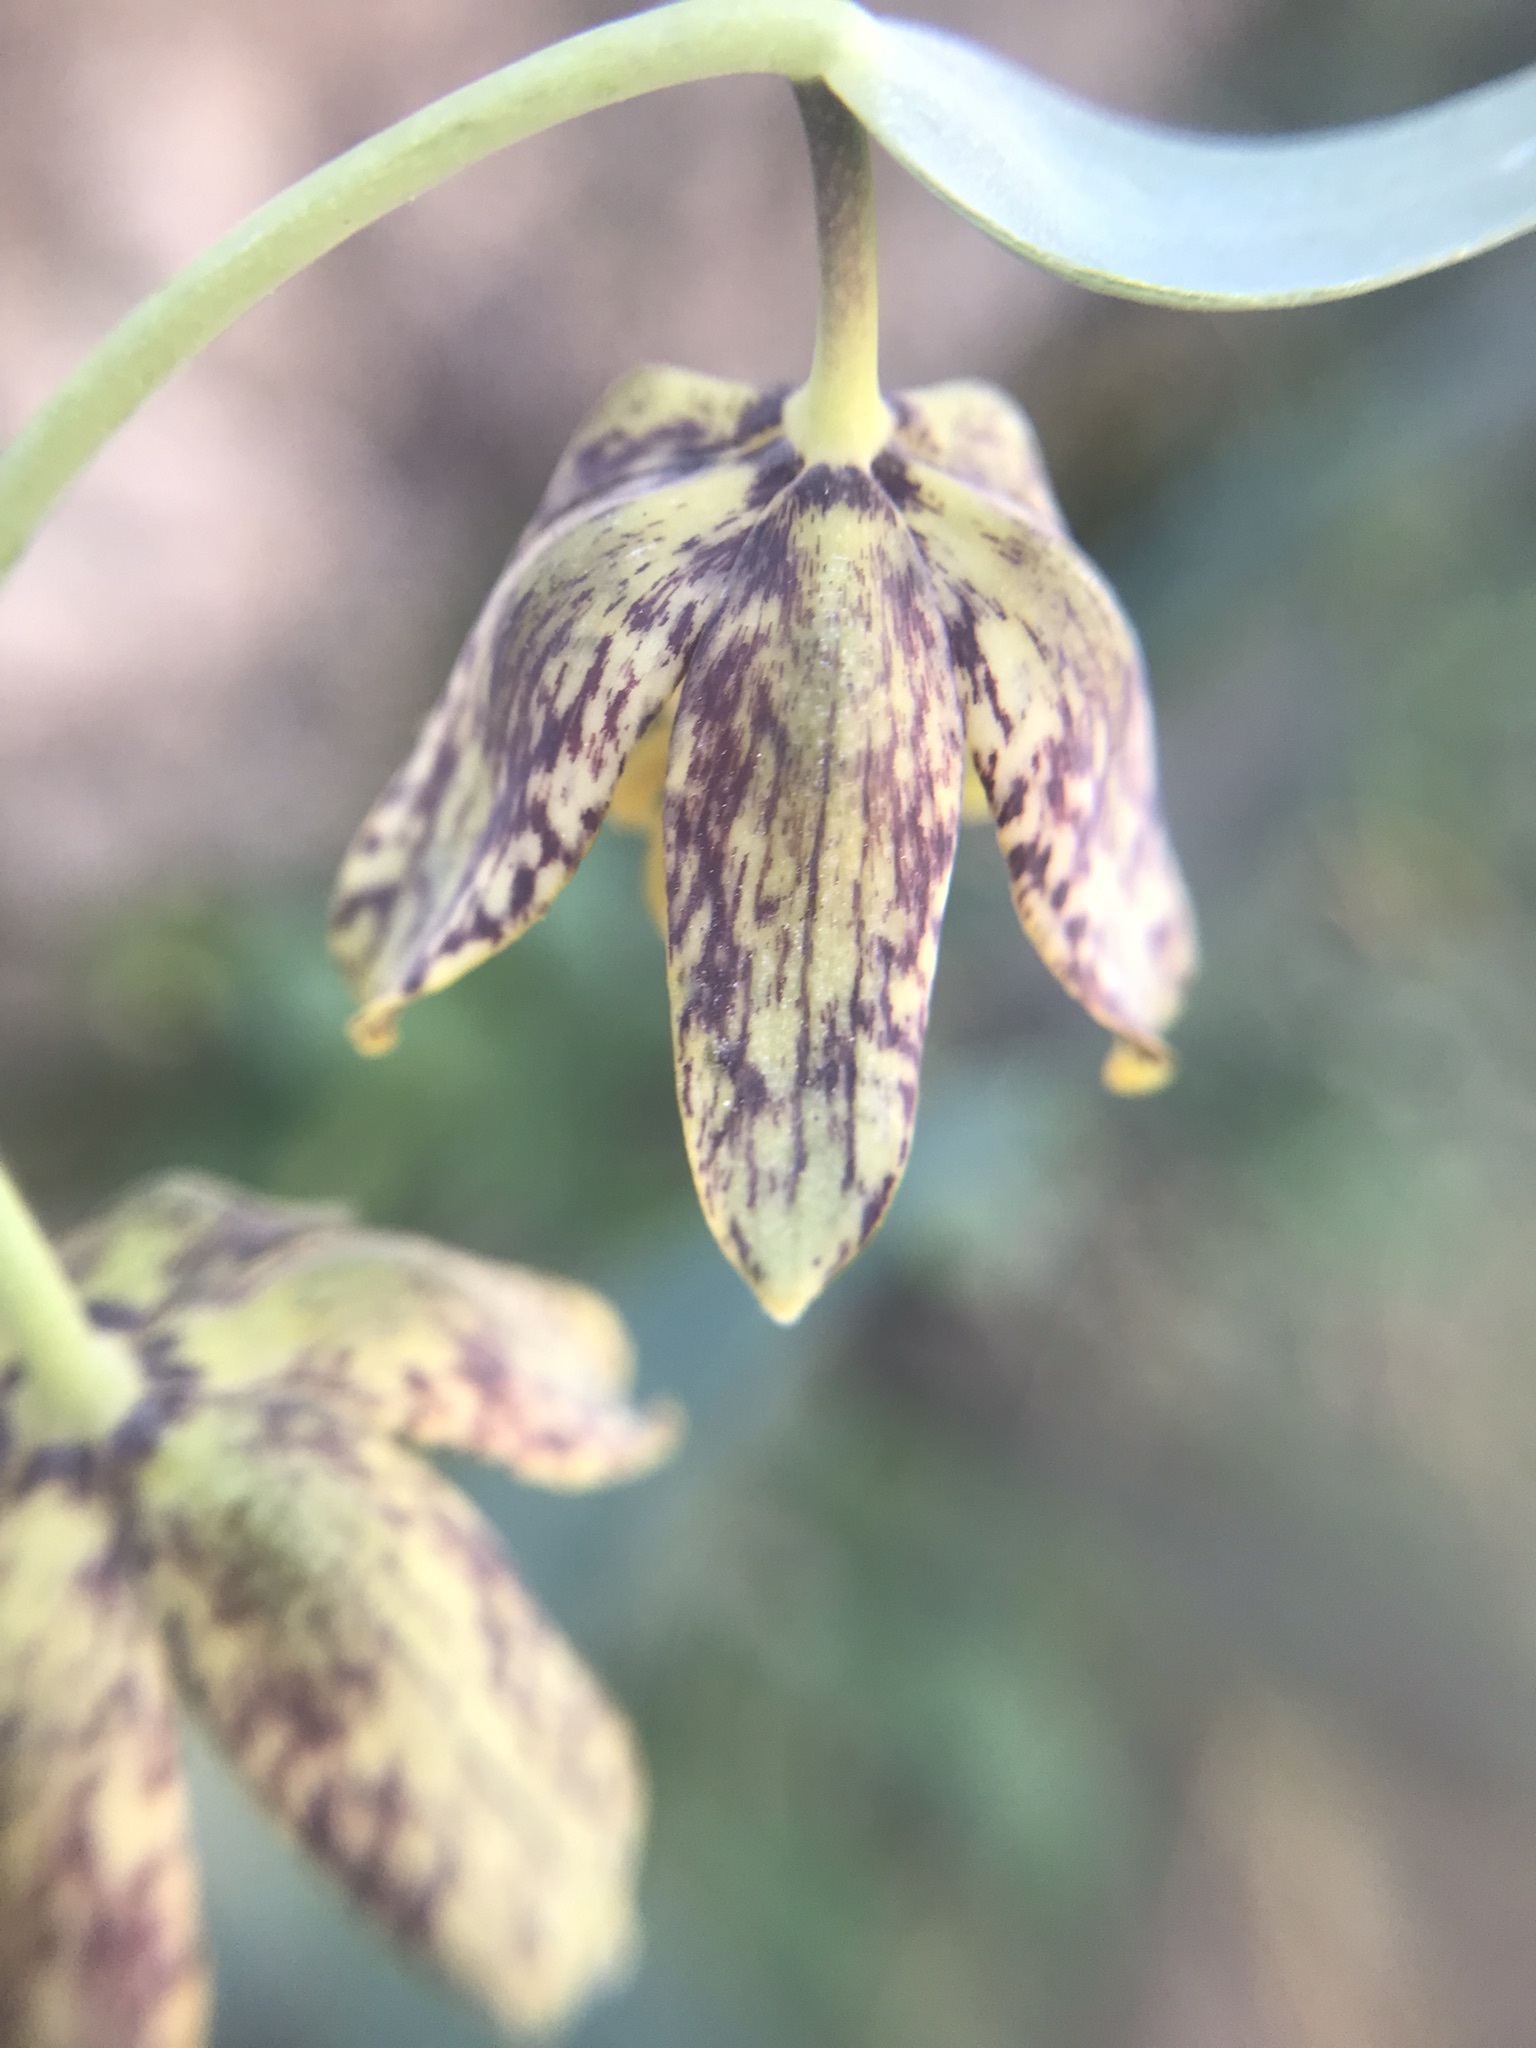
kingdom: Plantae
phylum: Tracheophyta
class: Liliopsida
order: Liliales
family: Liliaceae
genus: Fritillaria
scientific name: Fritillaria affinis
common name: Ojai fritillary
